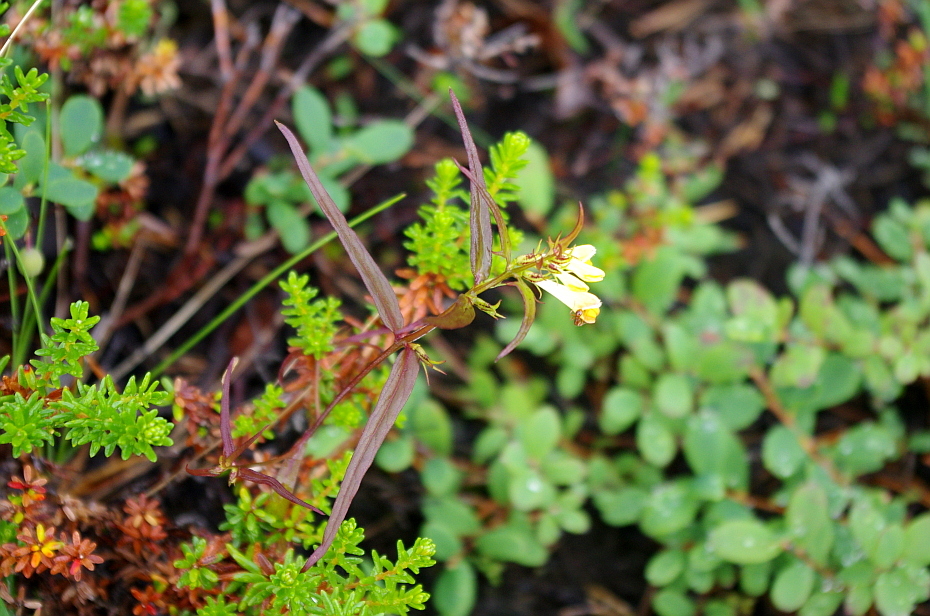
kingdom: Plantae
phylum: Tracheophyta
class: Magnoliopsida
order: Lamiales
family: Orobanchaceae
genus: Melampyrum
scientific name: Melampyrum pratense
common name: Common cow-wheat
